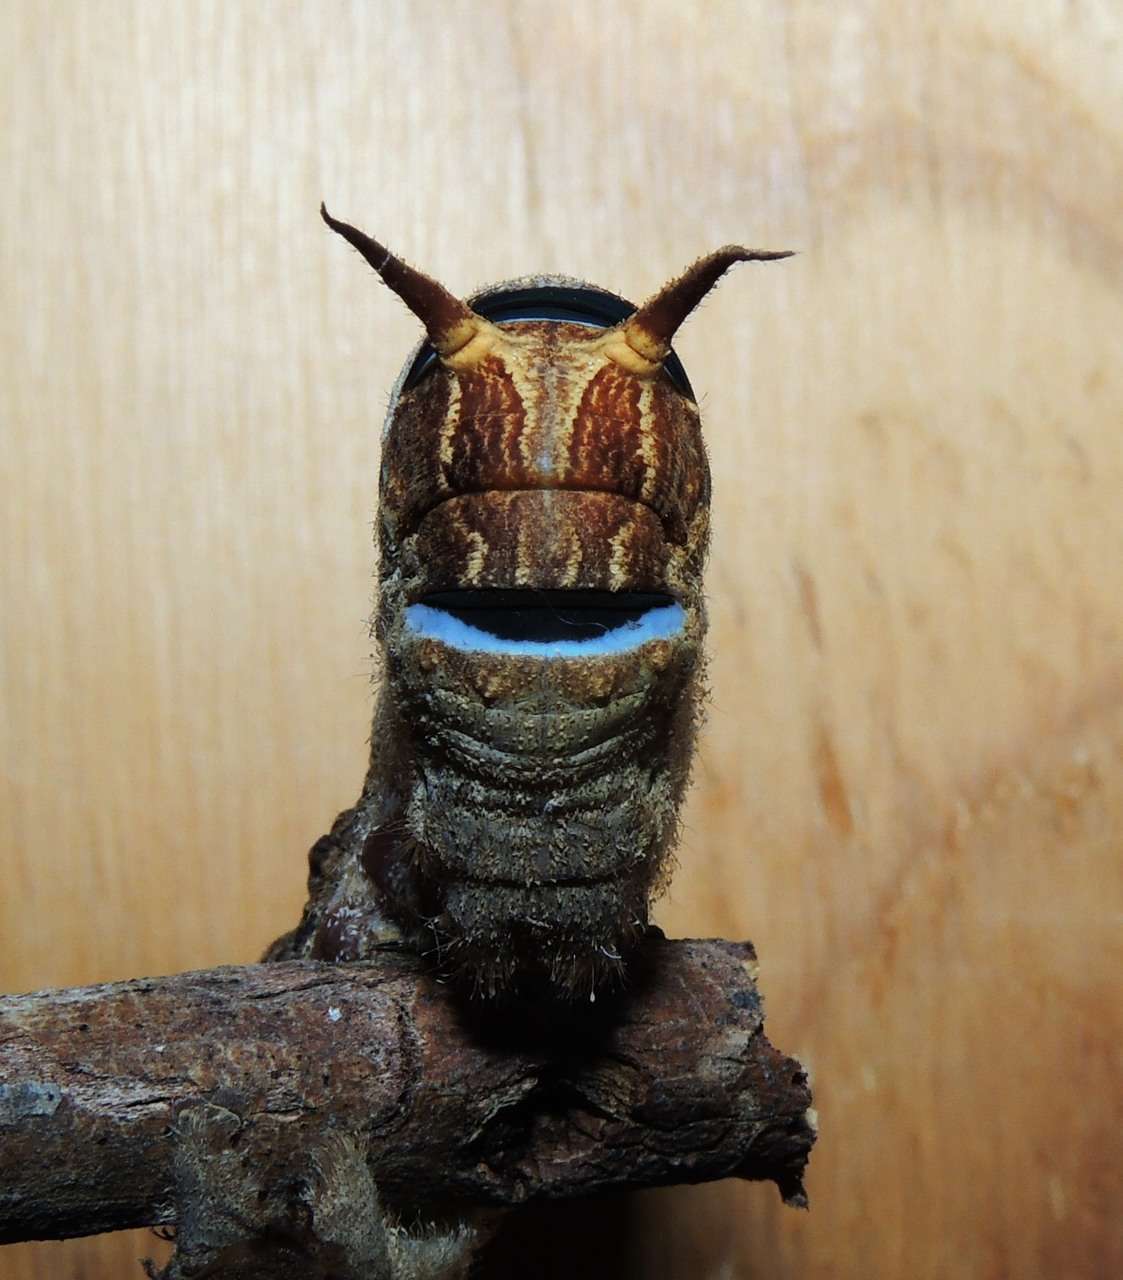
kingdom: Animalia
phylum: Arthropoda
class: Insecta
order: Lepidoptera
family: Lasiocampidae
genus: Entometa
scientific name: Entometa guttularis
